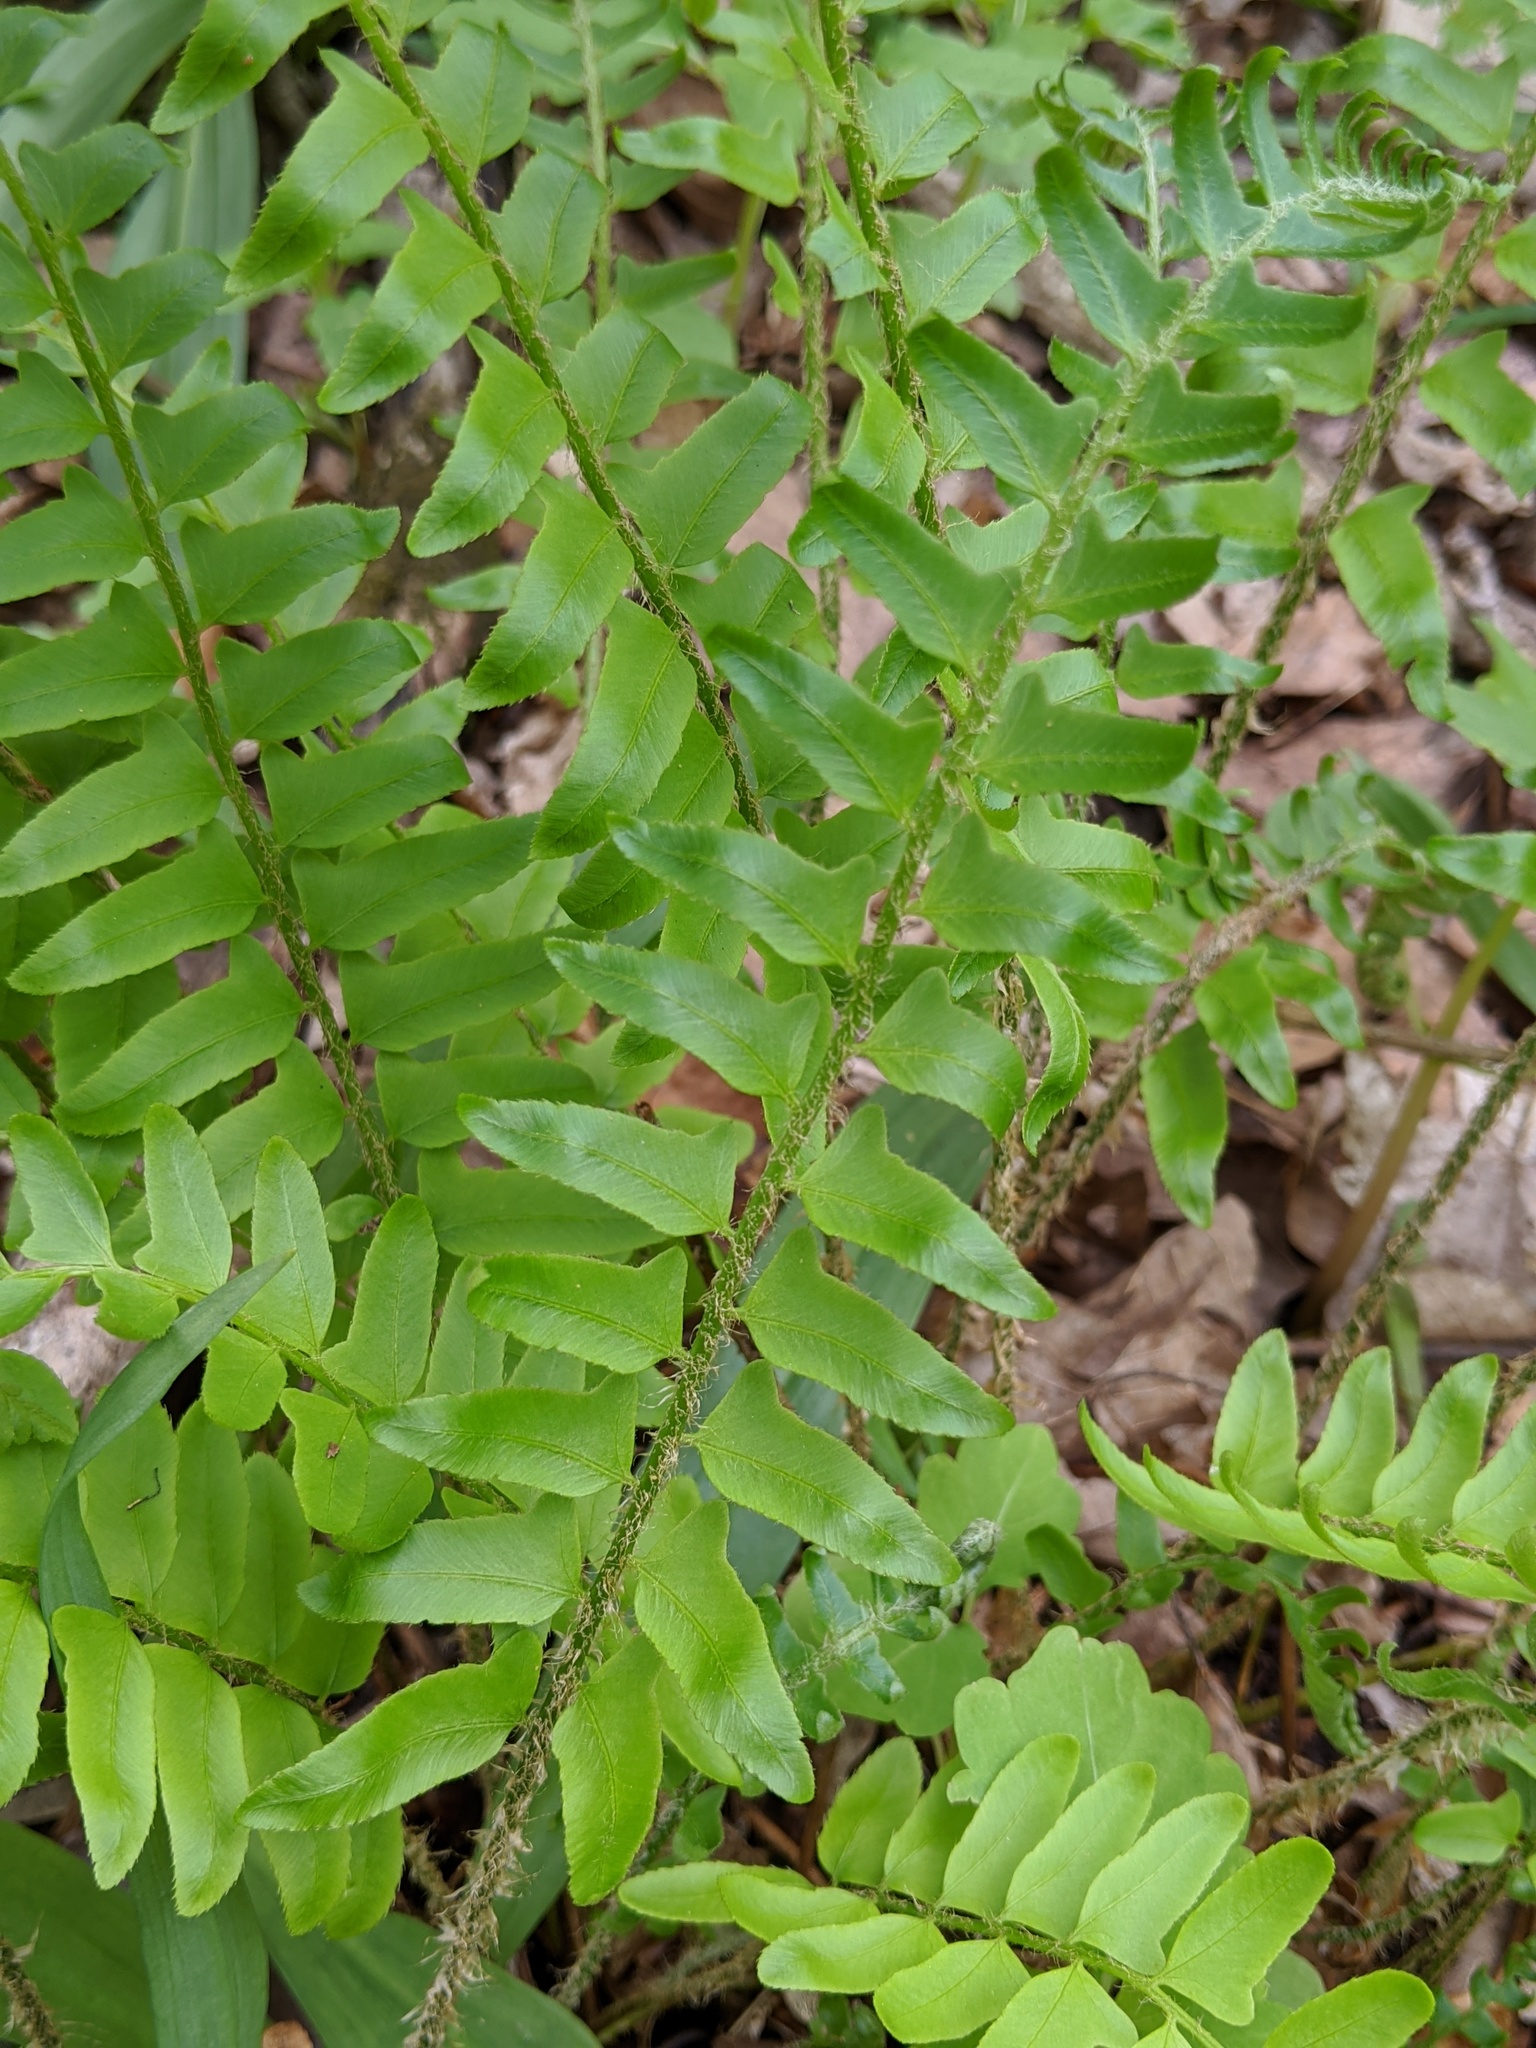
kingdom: Plantae
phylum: Tracheophyta
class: Polypodiopsida
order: Polypodiales
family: Dryopteridaceae
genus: Polystichum
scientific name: Polystichum acrostichoides
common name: Christmas fern
